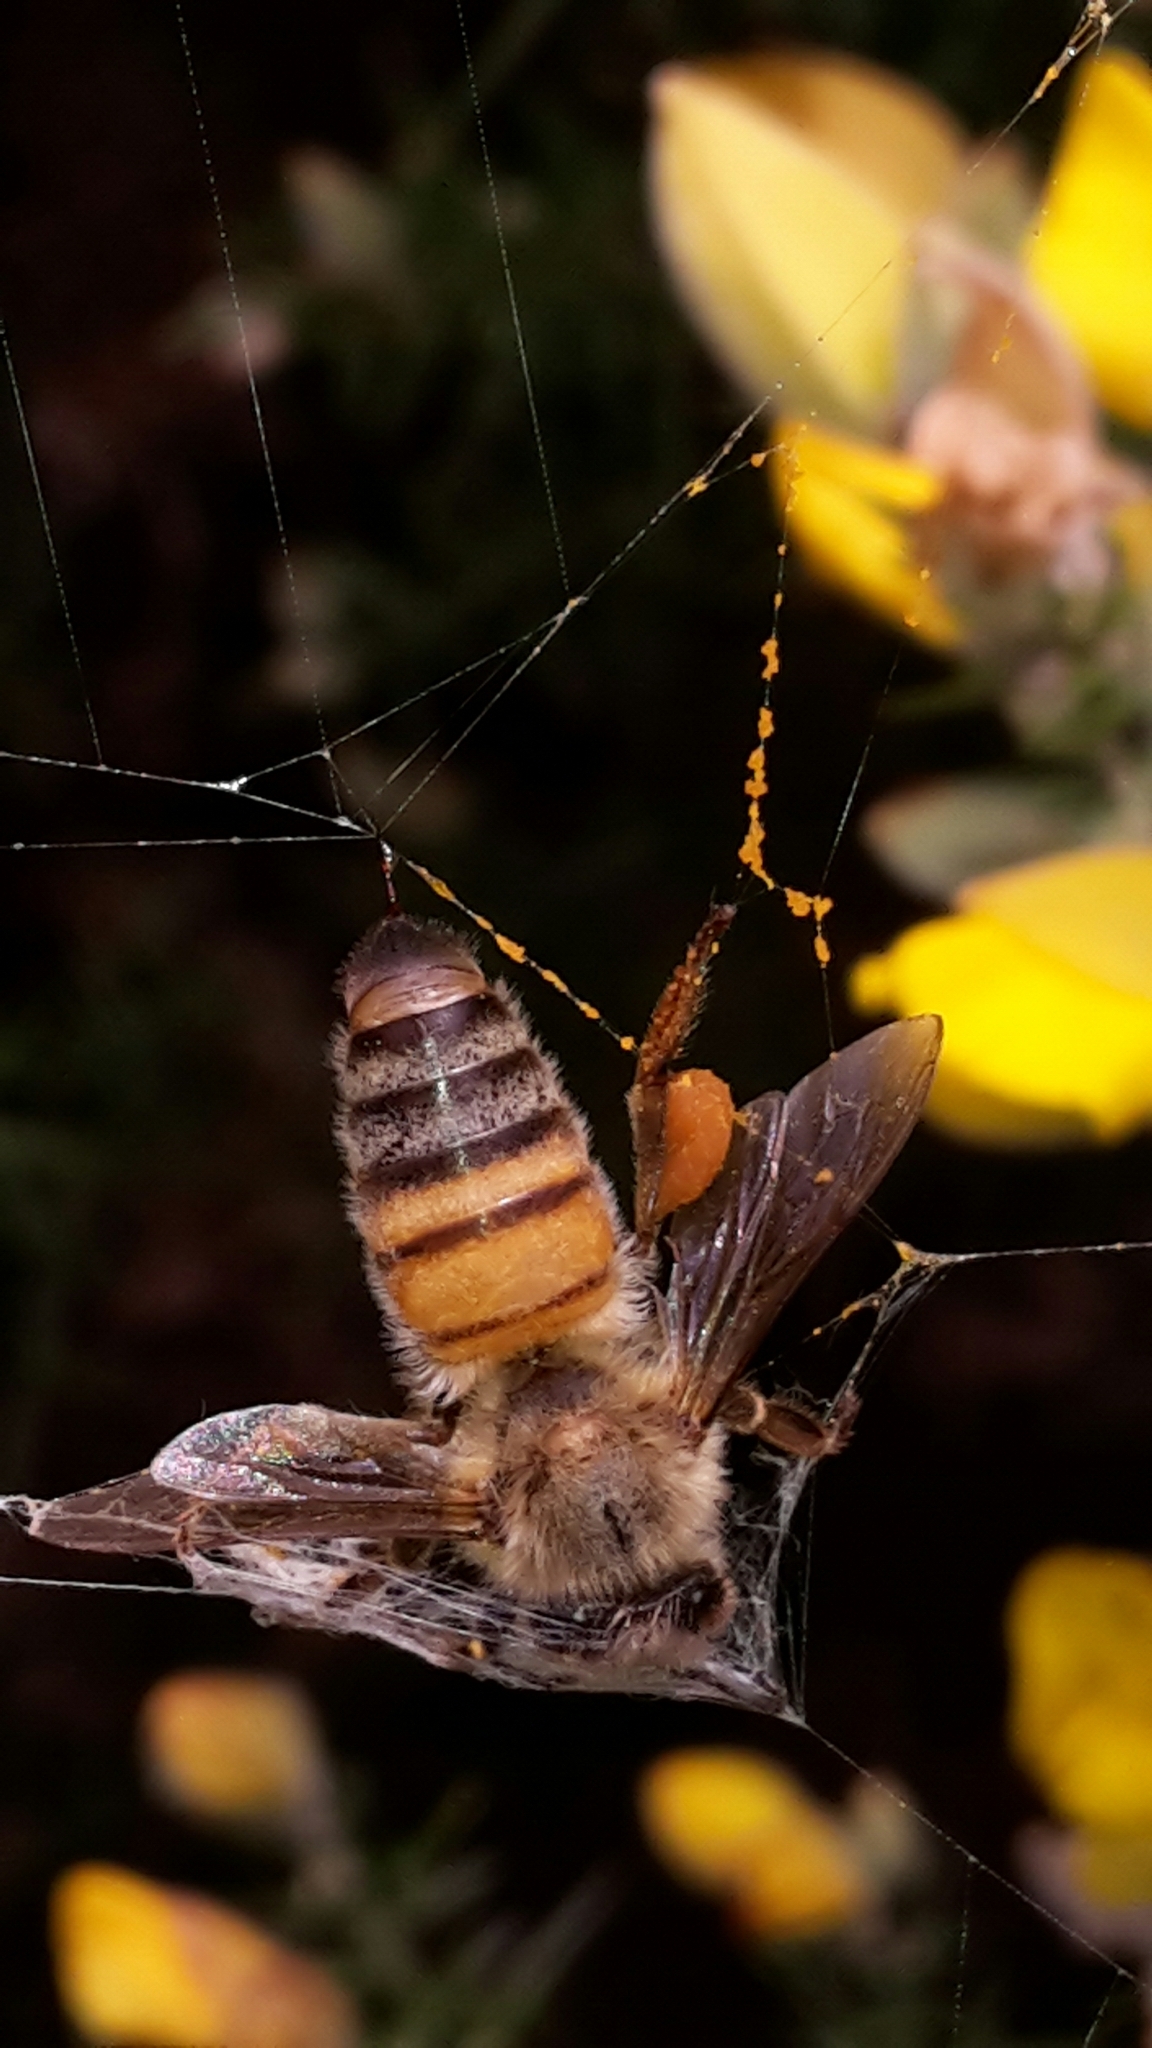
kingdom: Animalia
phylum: Arthropoda
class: Insecta
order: Hymenoptera
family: Apidae
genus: Apis
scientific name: Apis mellifera
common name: Honey bee
